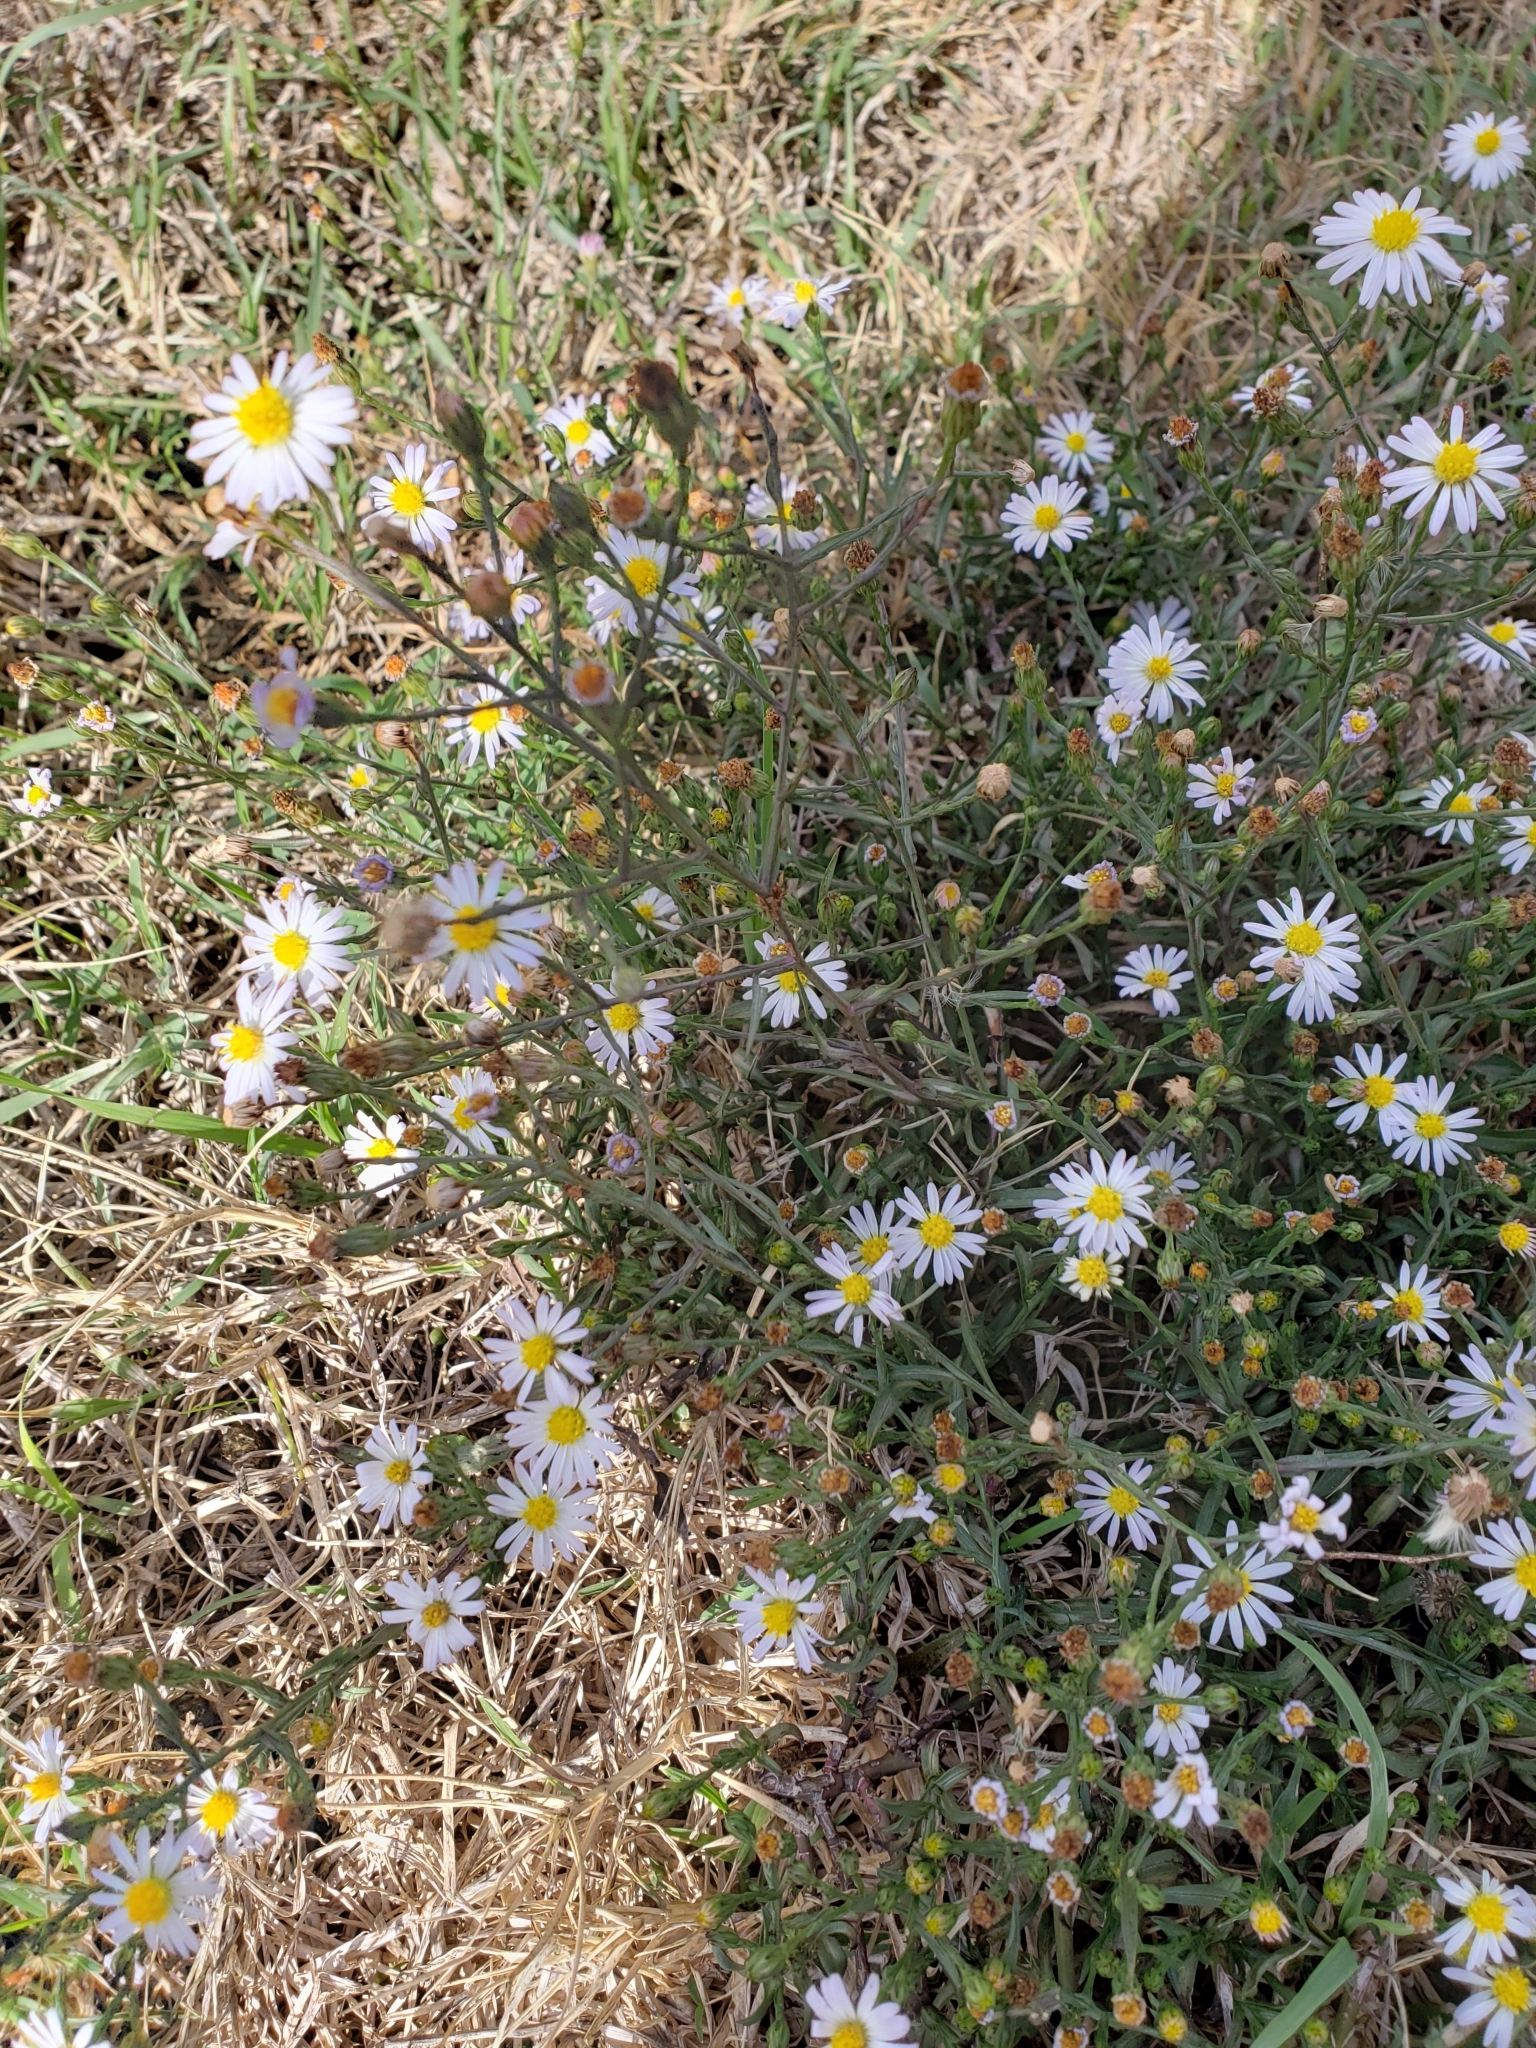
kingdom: Plantae
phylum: Tracheophyta
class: Magnoliopsida
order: Asterales
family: Asteraceae
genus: Symphyotrichum
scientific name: Symphyotrichum divaricatum
